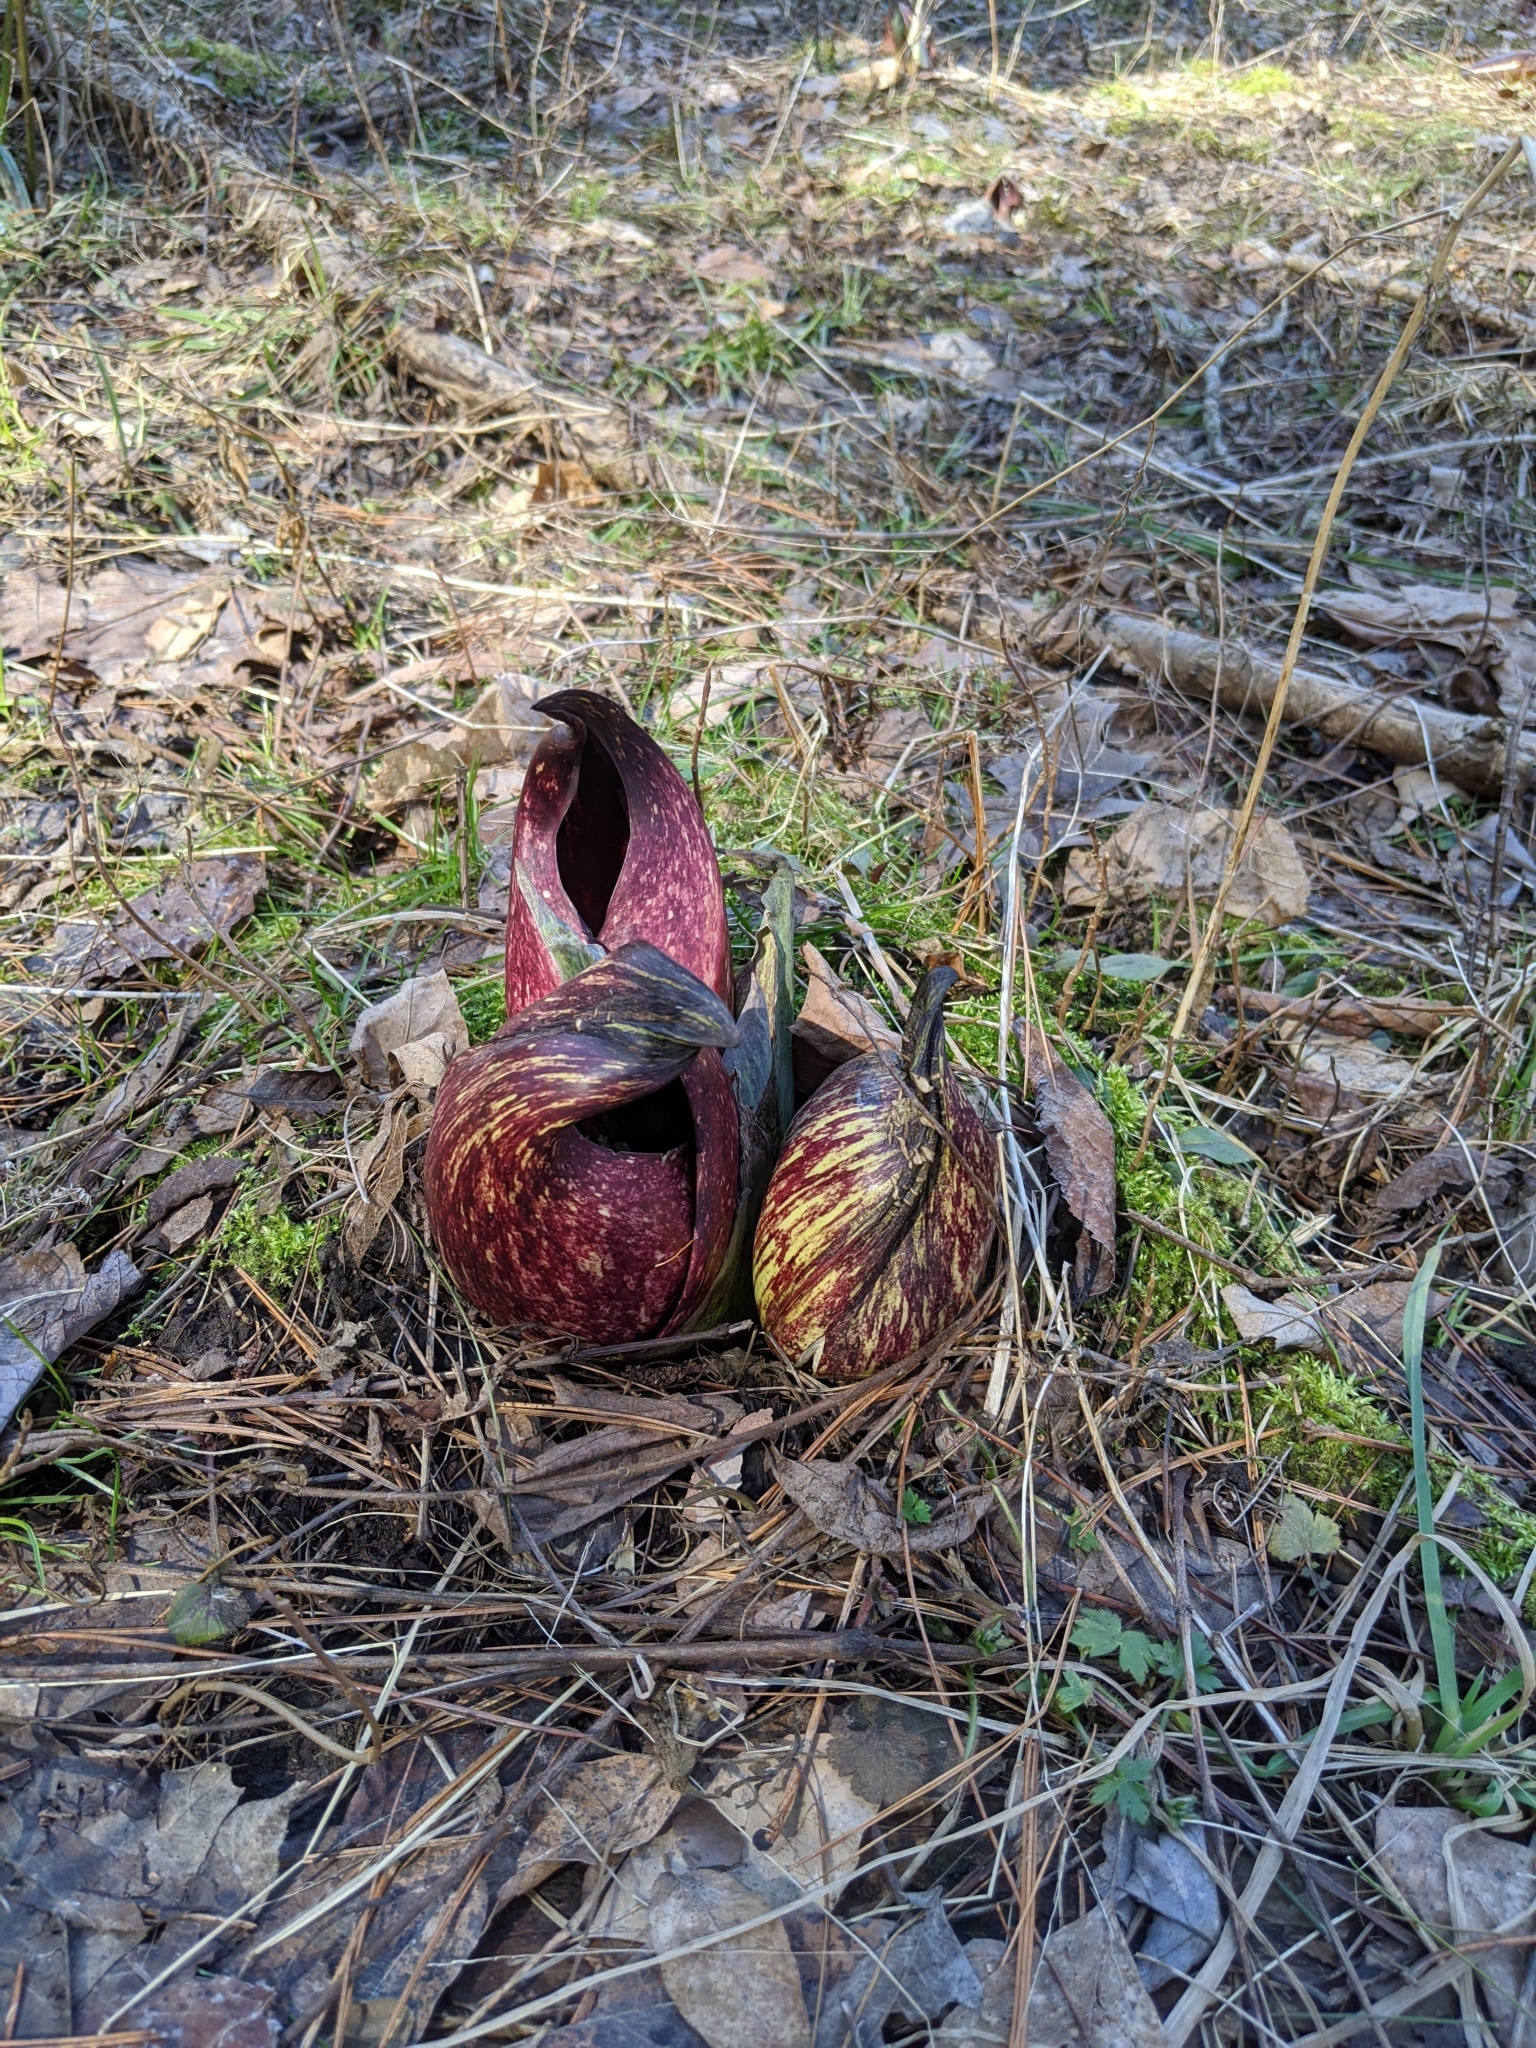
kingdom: Plantae
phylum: Tracheophyta
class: Liliopsida
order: Alismatales
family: Araceae
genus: Symplocarpus
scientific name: Symplocarpus foetidus
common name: Eastern skunk cabbage
